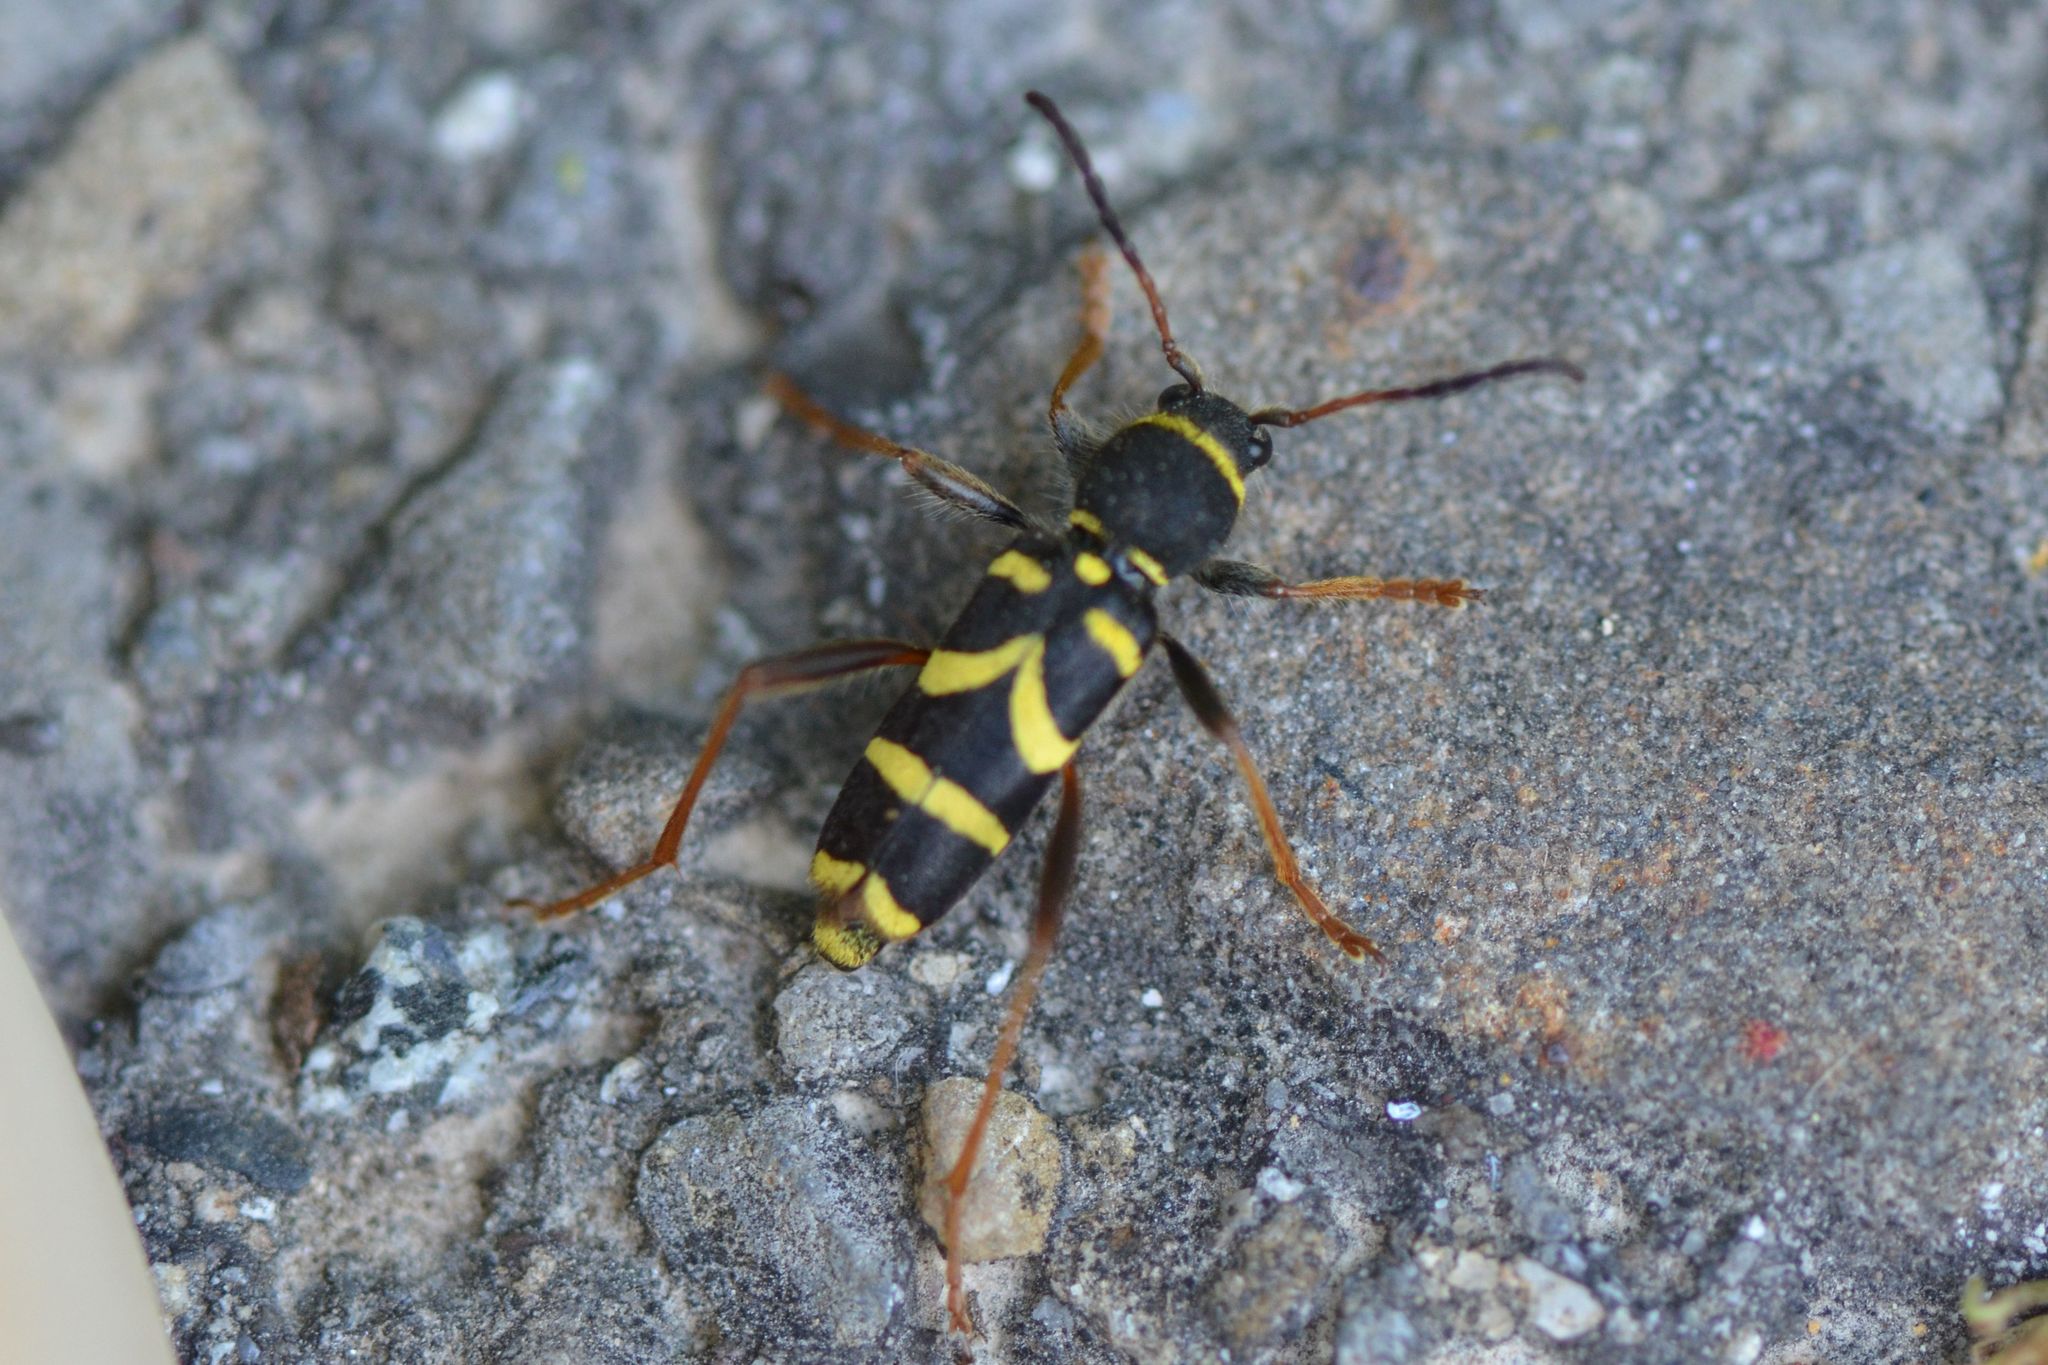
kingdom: Animalia
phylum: Arthropoda
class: Insecta
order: Coleoptera
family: Cerambycidae
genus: Clytus
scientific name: Clytus arietis
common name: Wasp beetle
